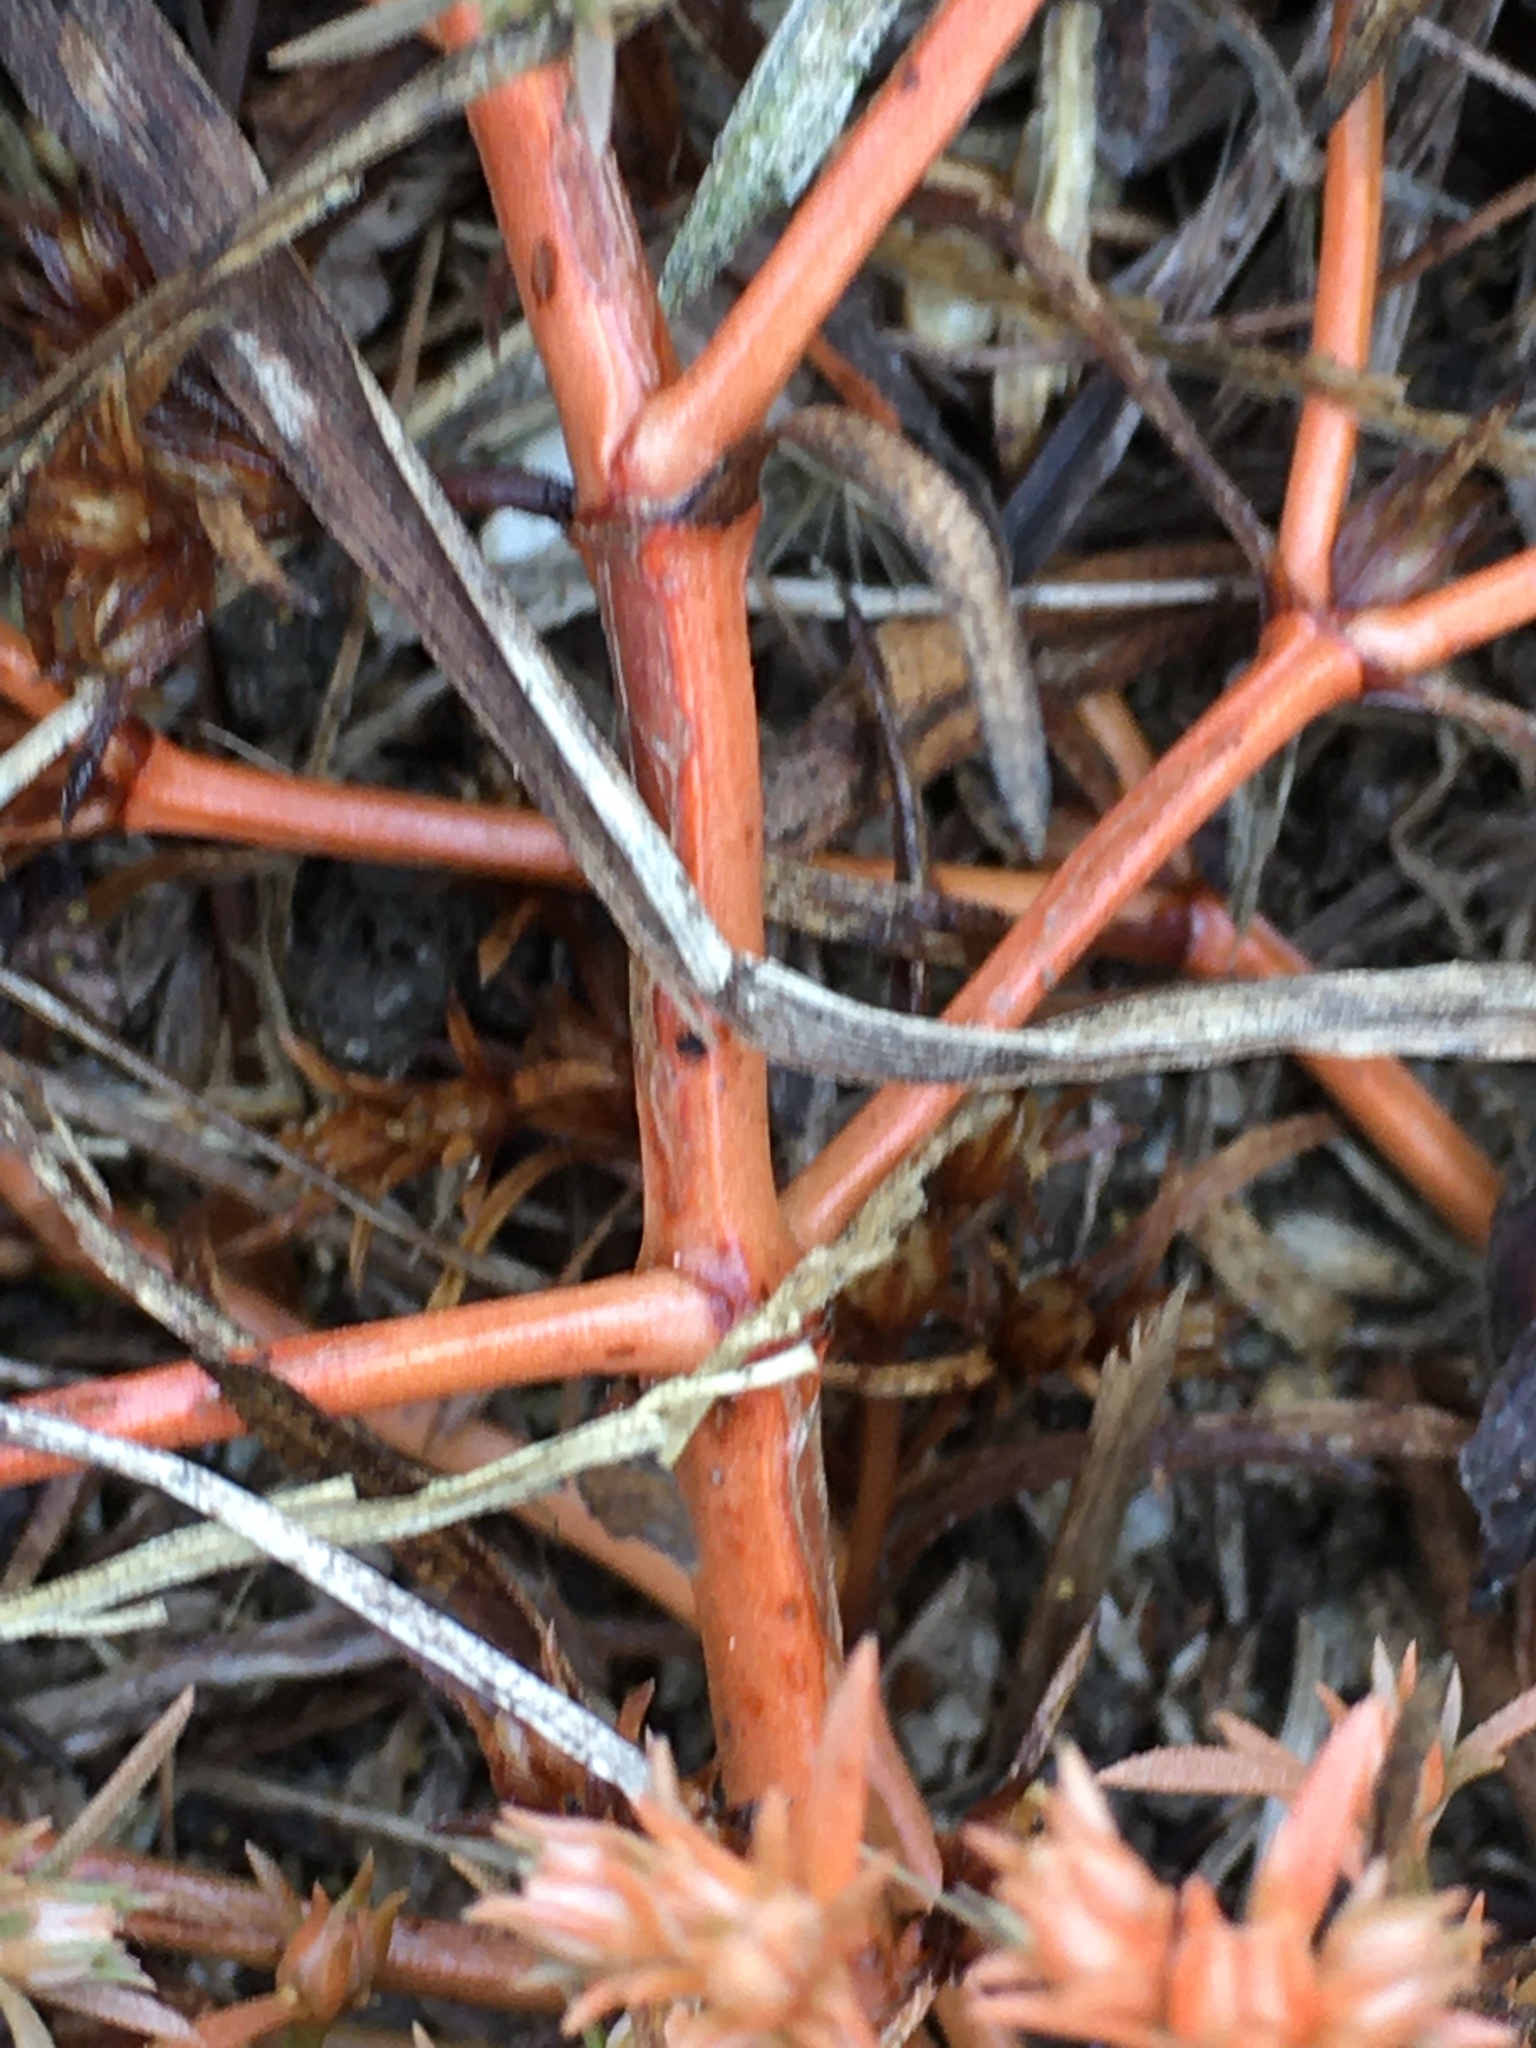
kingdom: Plantae
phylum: Tracheophyta
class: Magnoliopsida
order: Lamiales
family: Tetrachondraceae
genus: Polypremum
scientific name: Polypremum procumbens
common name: Juniper-leaf
